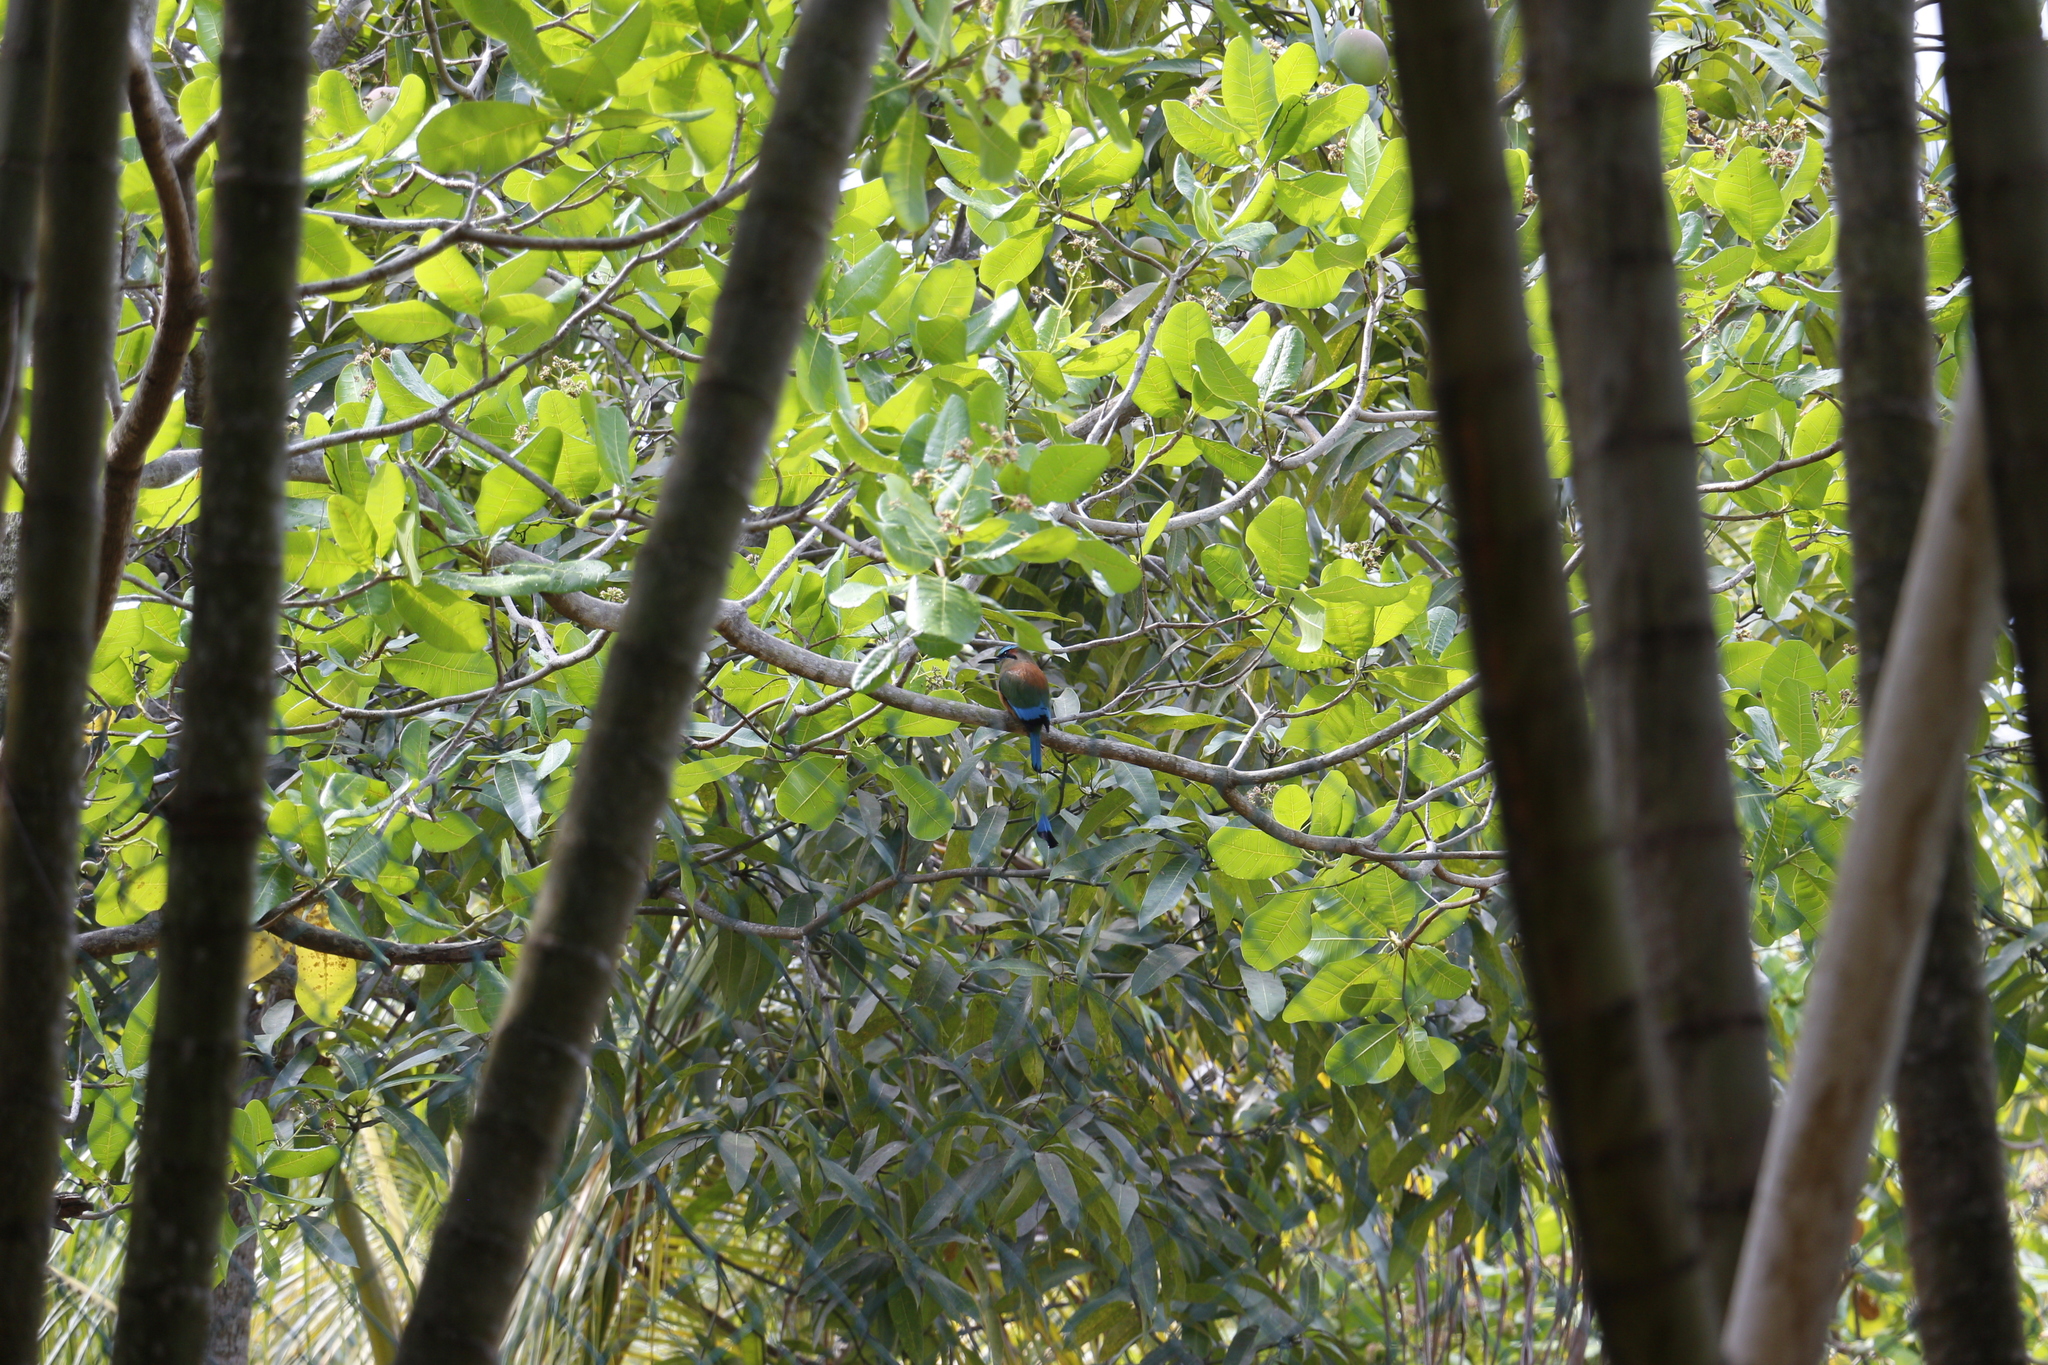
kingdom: Animalia
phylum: Chordata
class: Aves
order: Coraciiformes
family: Momotidae
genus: Eumomota
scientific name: Eumomota superciliosa
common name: Turquoise-browed motmot
